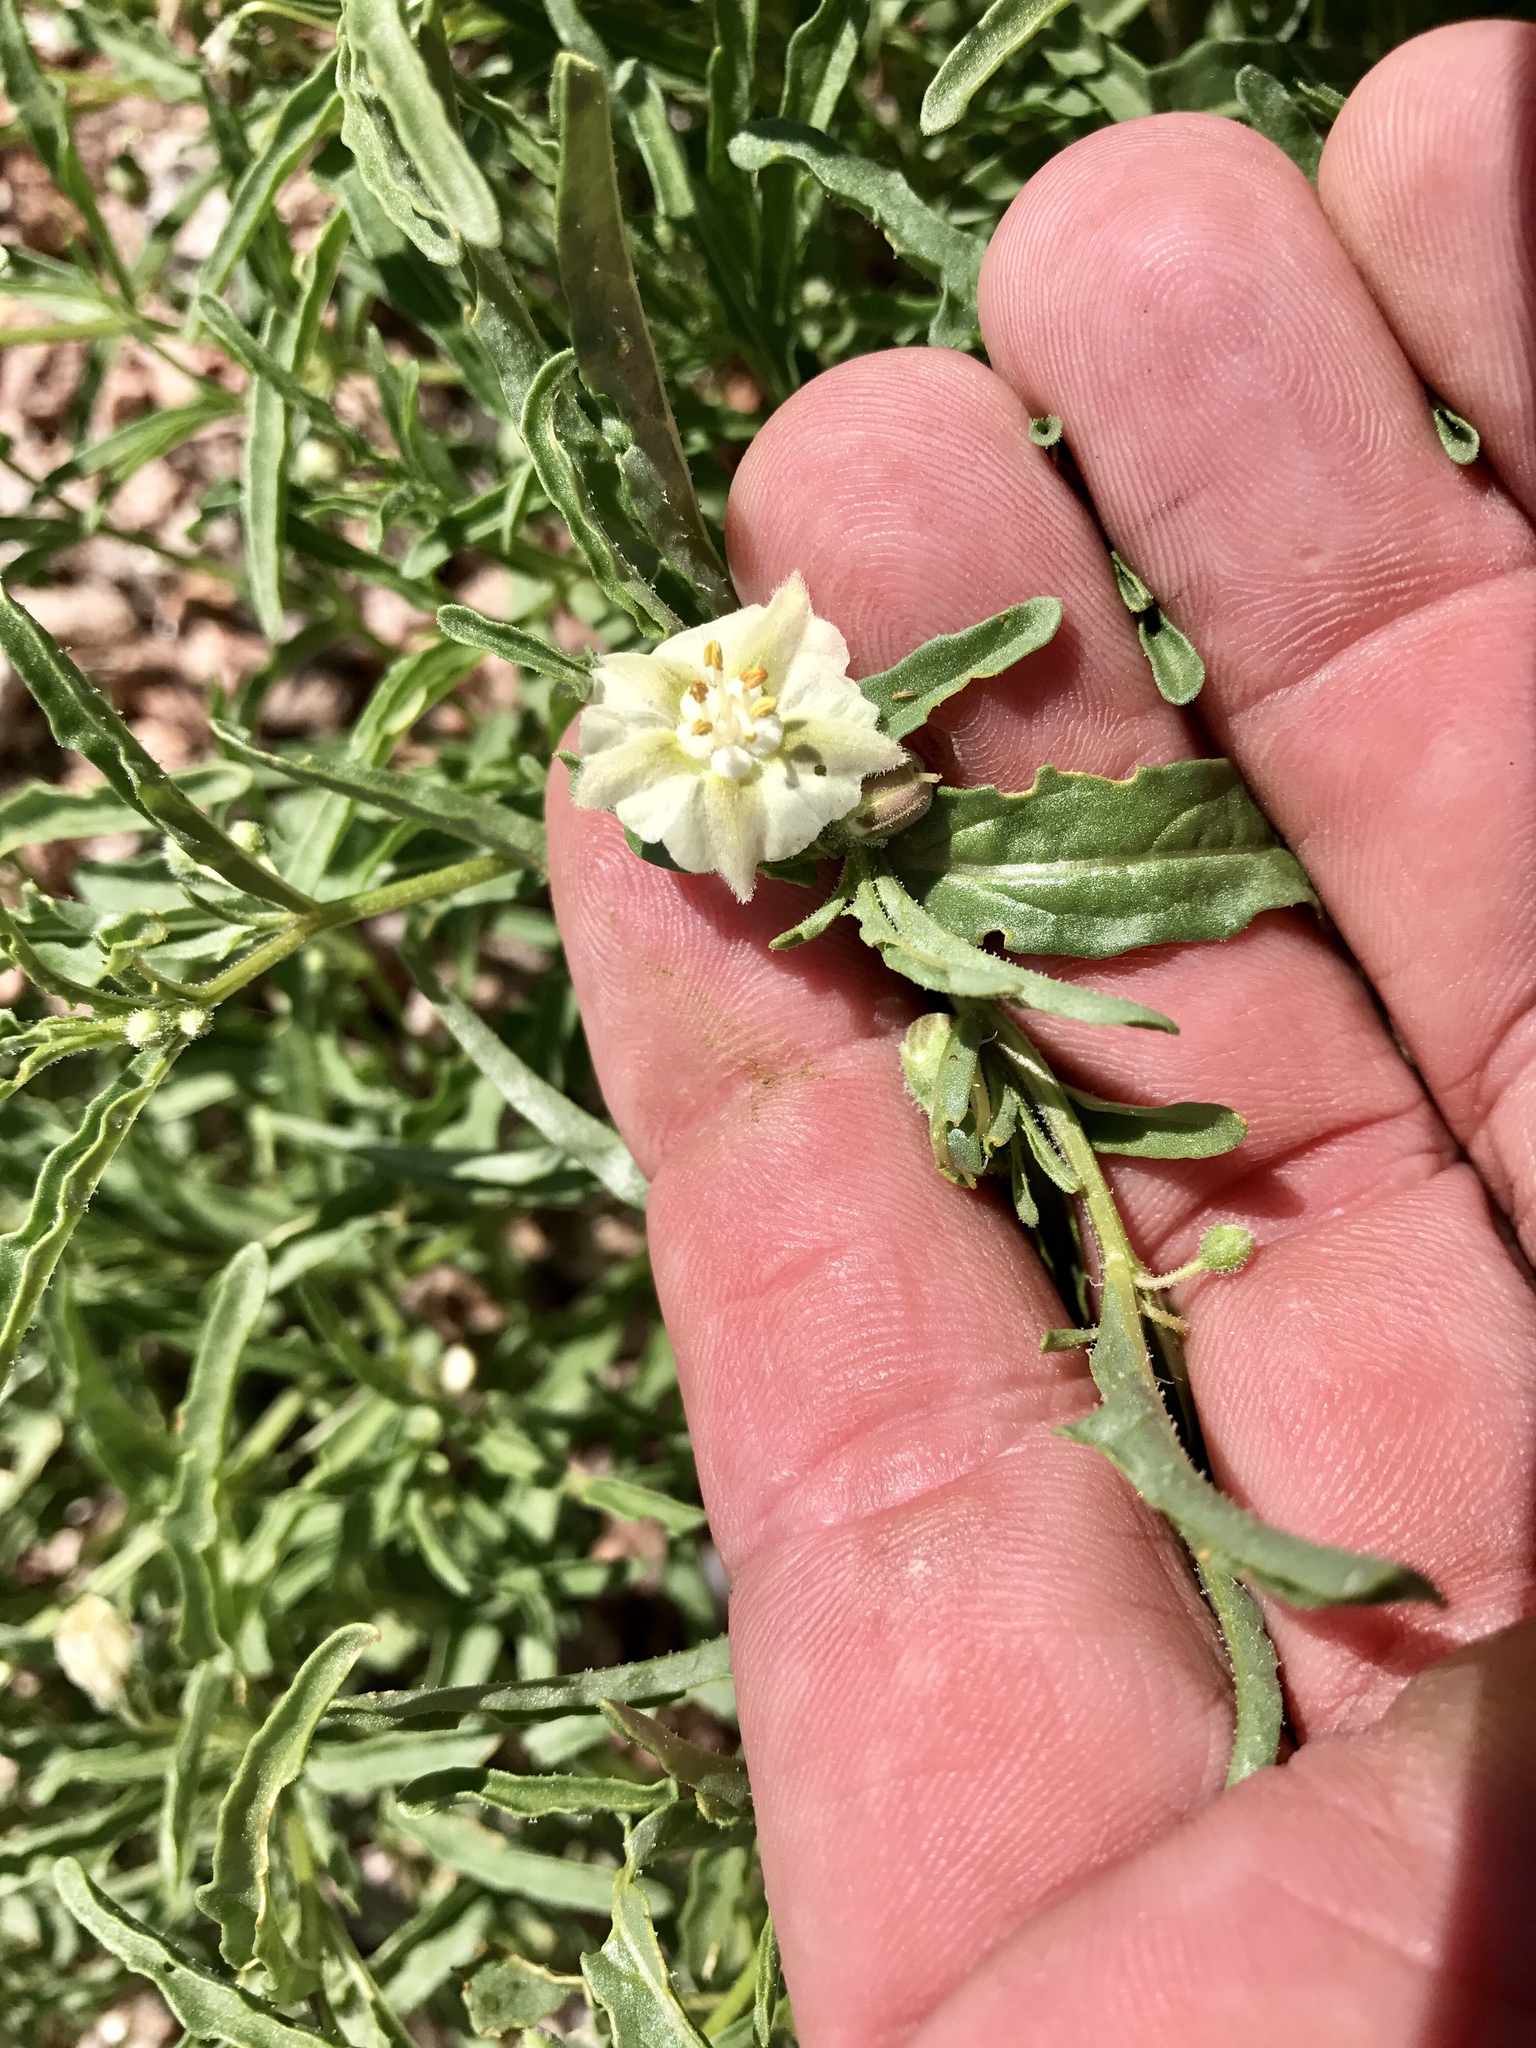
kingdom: Plantae
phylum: Tracheophyta
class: Magnoliopsida
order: Solanales
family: Solanaceae
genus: Chamaesaracha
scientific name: Chamaesaracha coronopus
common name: Smooth chamaesaracha
